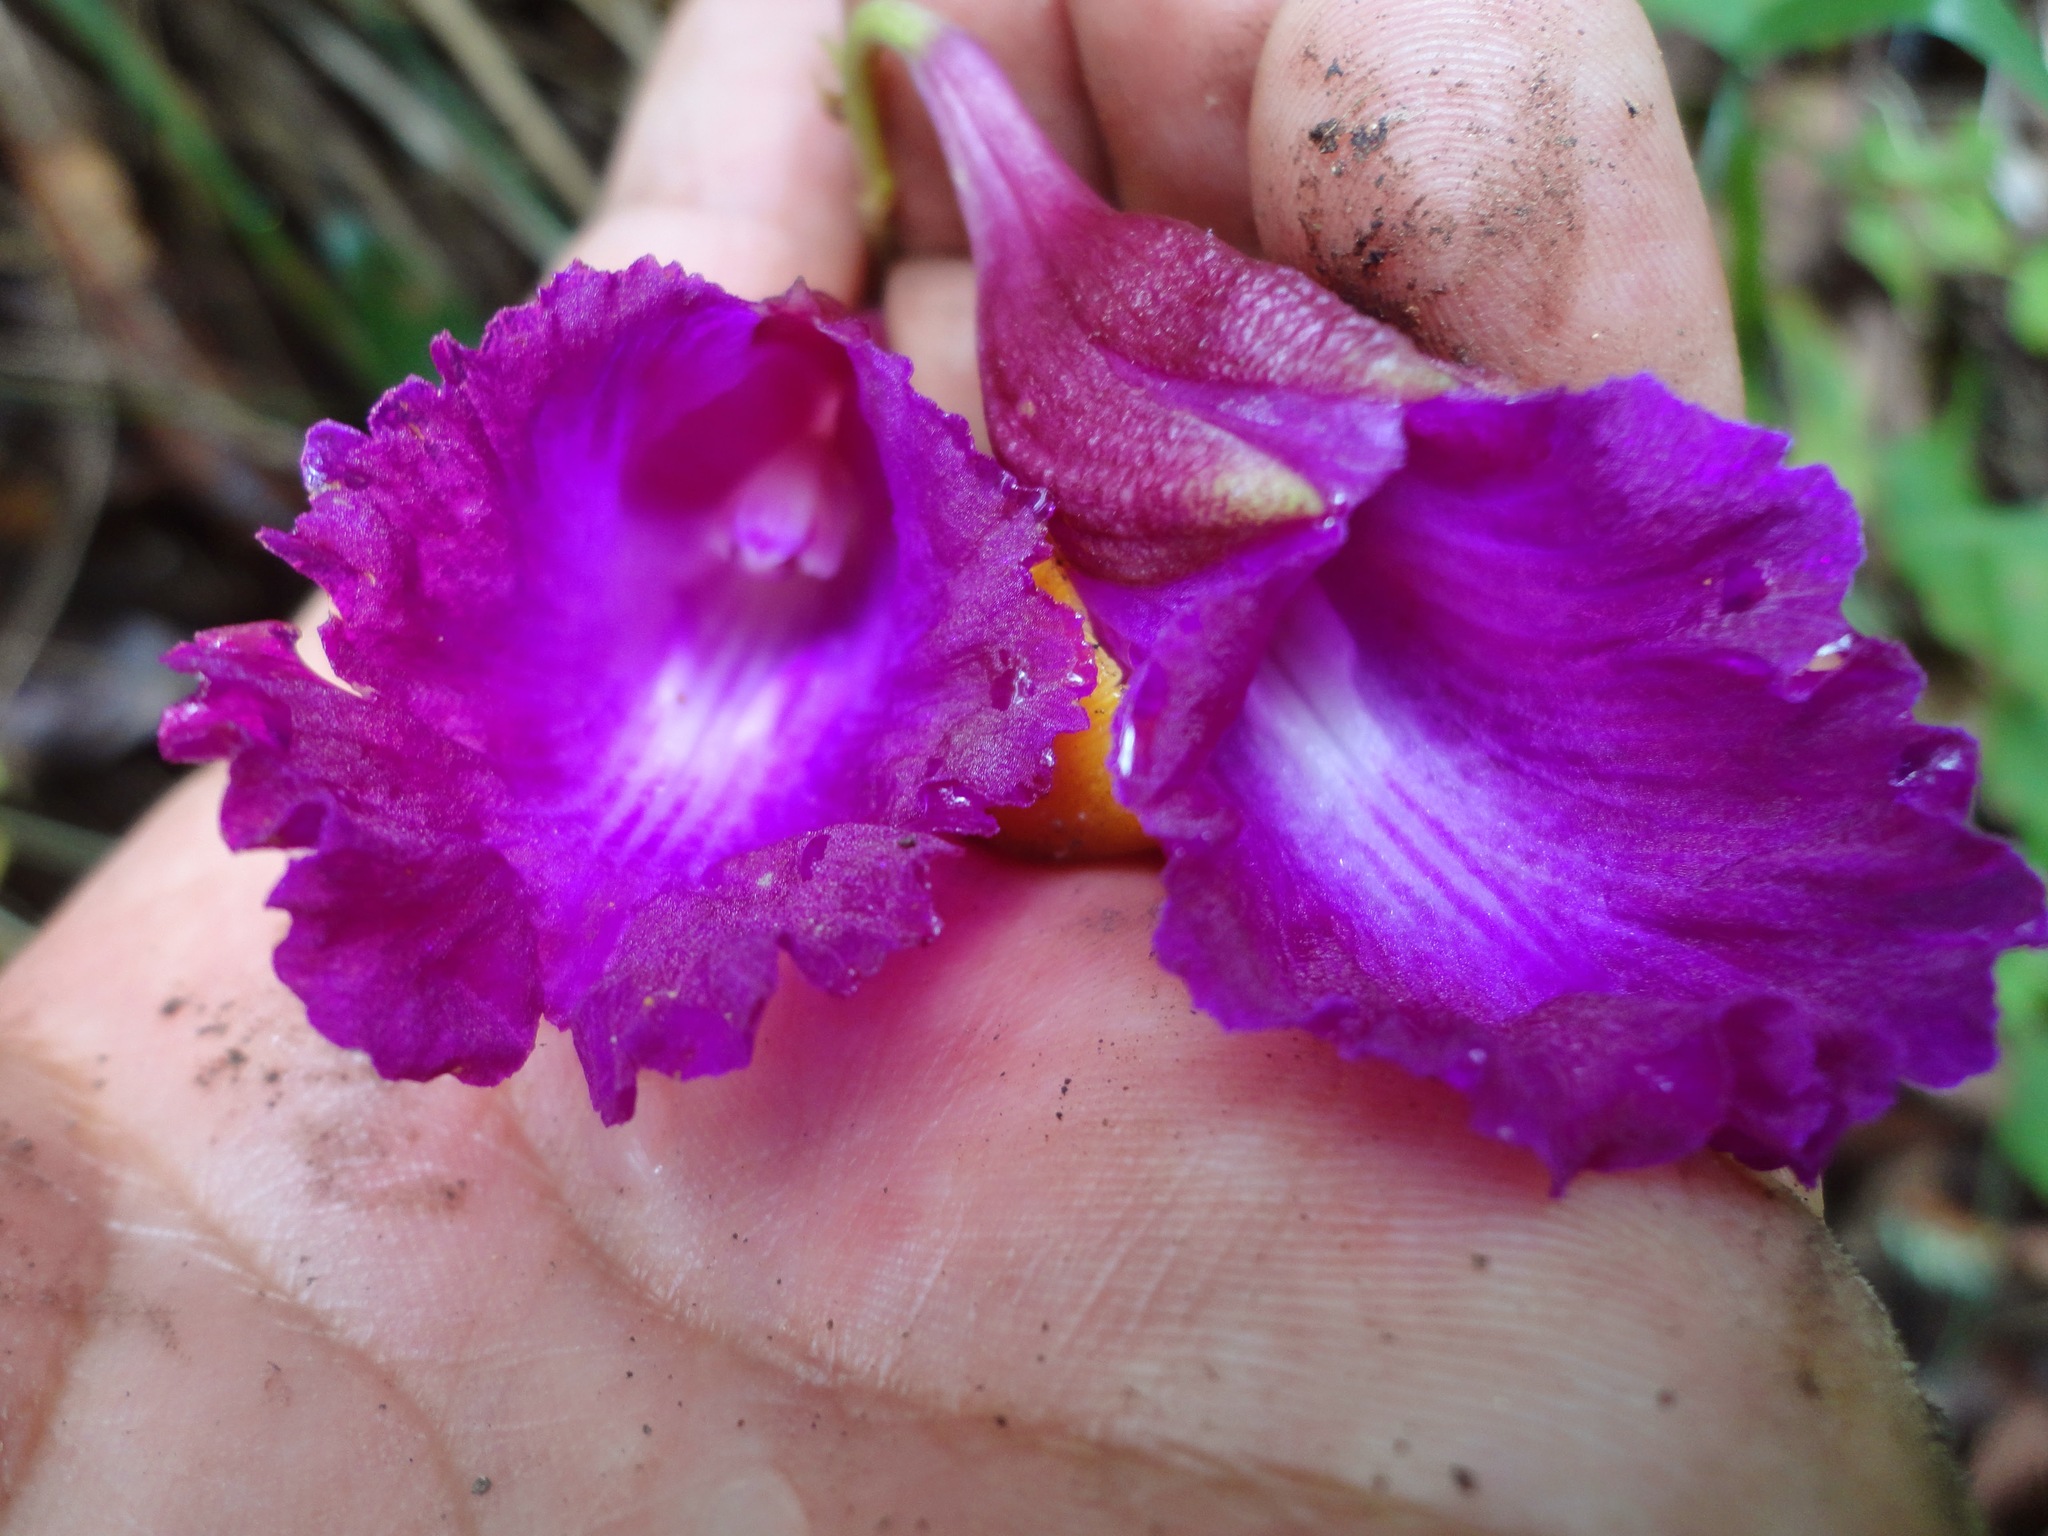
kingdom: Plantae
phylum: Tracheophyta
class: Liliopsida
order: Asparagales
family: Orchidaceae
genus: Bletia
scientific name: Bletia purpurata
